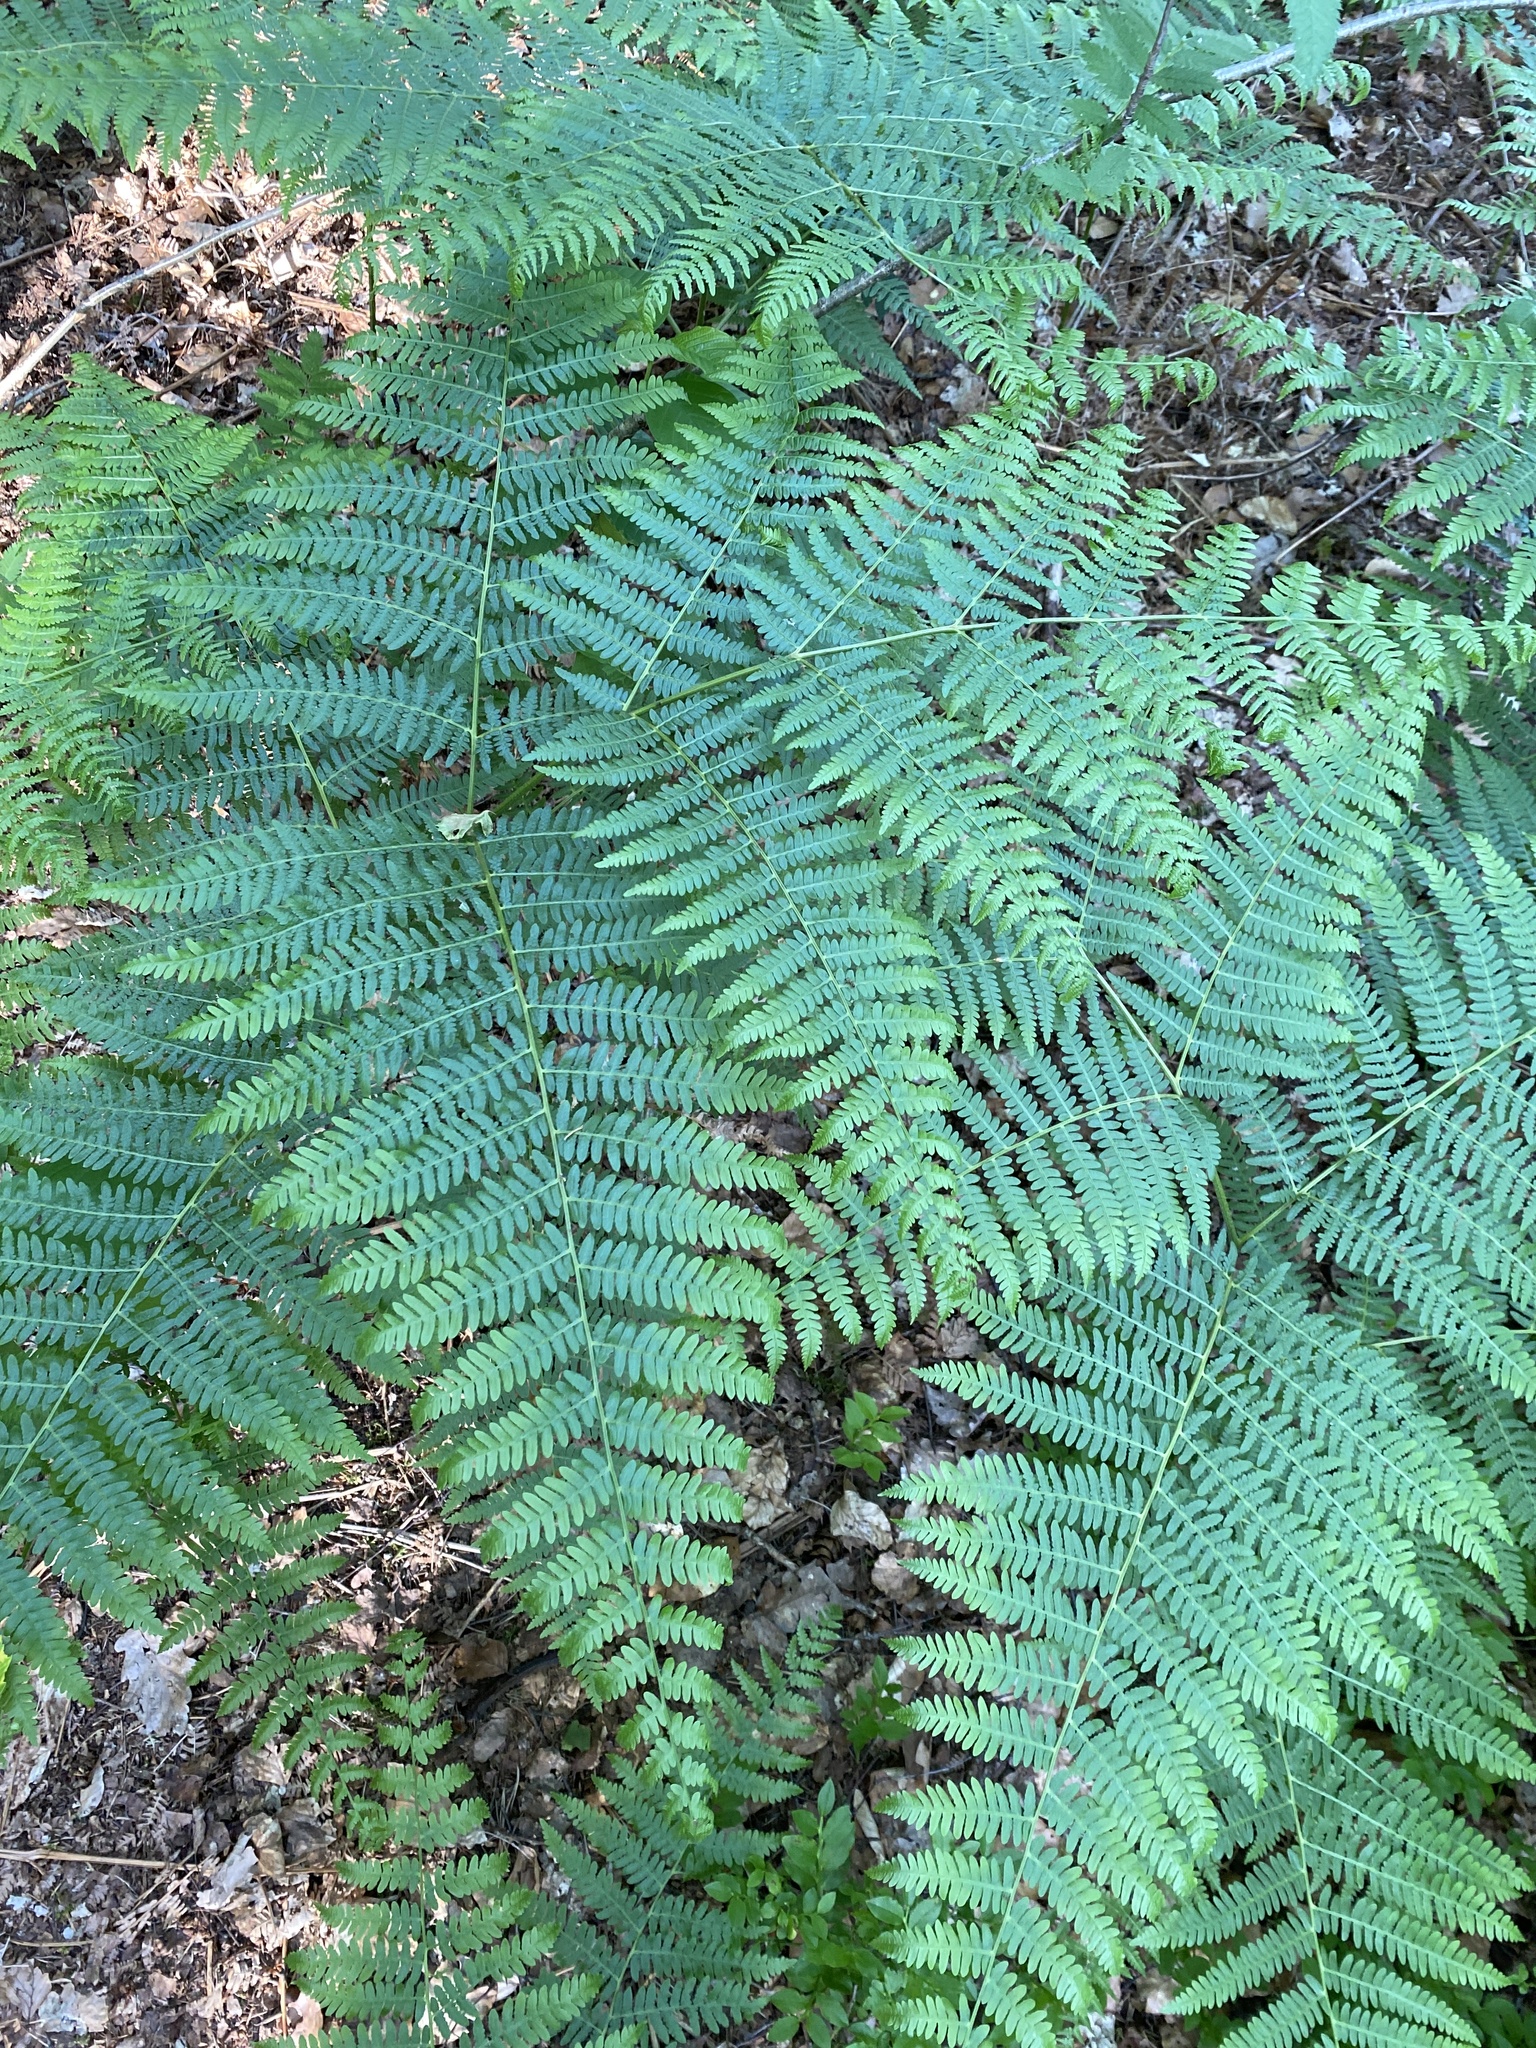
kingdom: Plantae
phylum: Tracheophyta
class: Polypodiopsida
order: Polypodiales
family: Dennstaedtiaceae
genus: Pteridium
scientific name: Pteridium aquilinum
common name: Bracken
